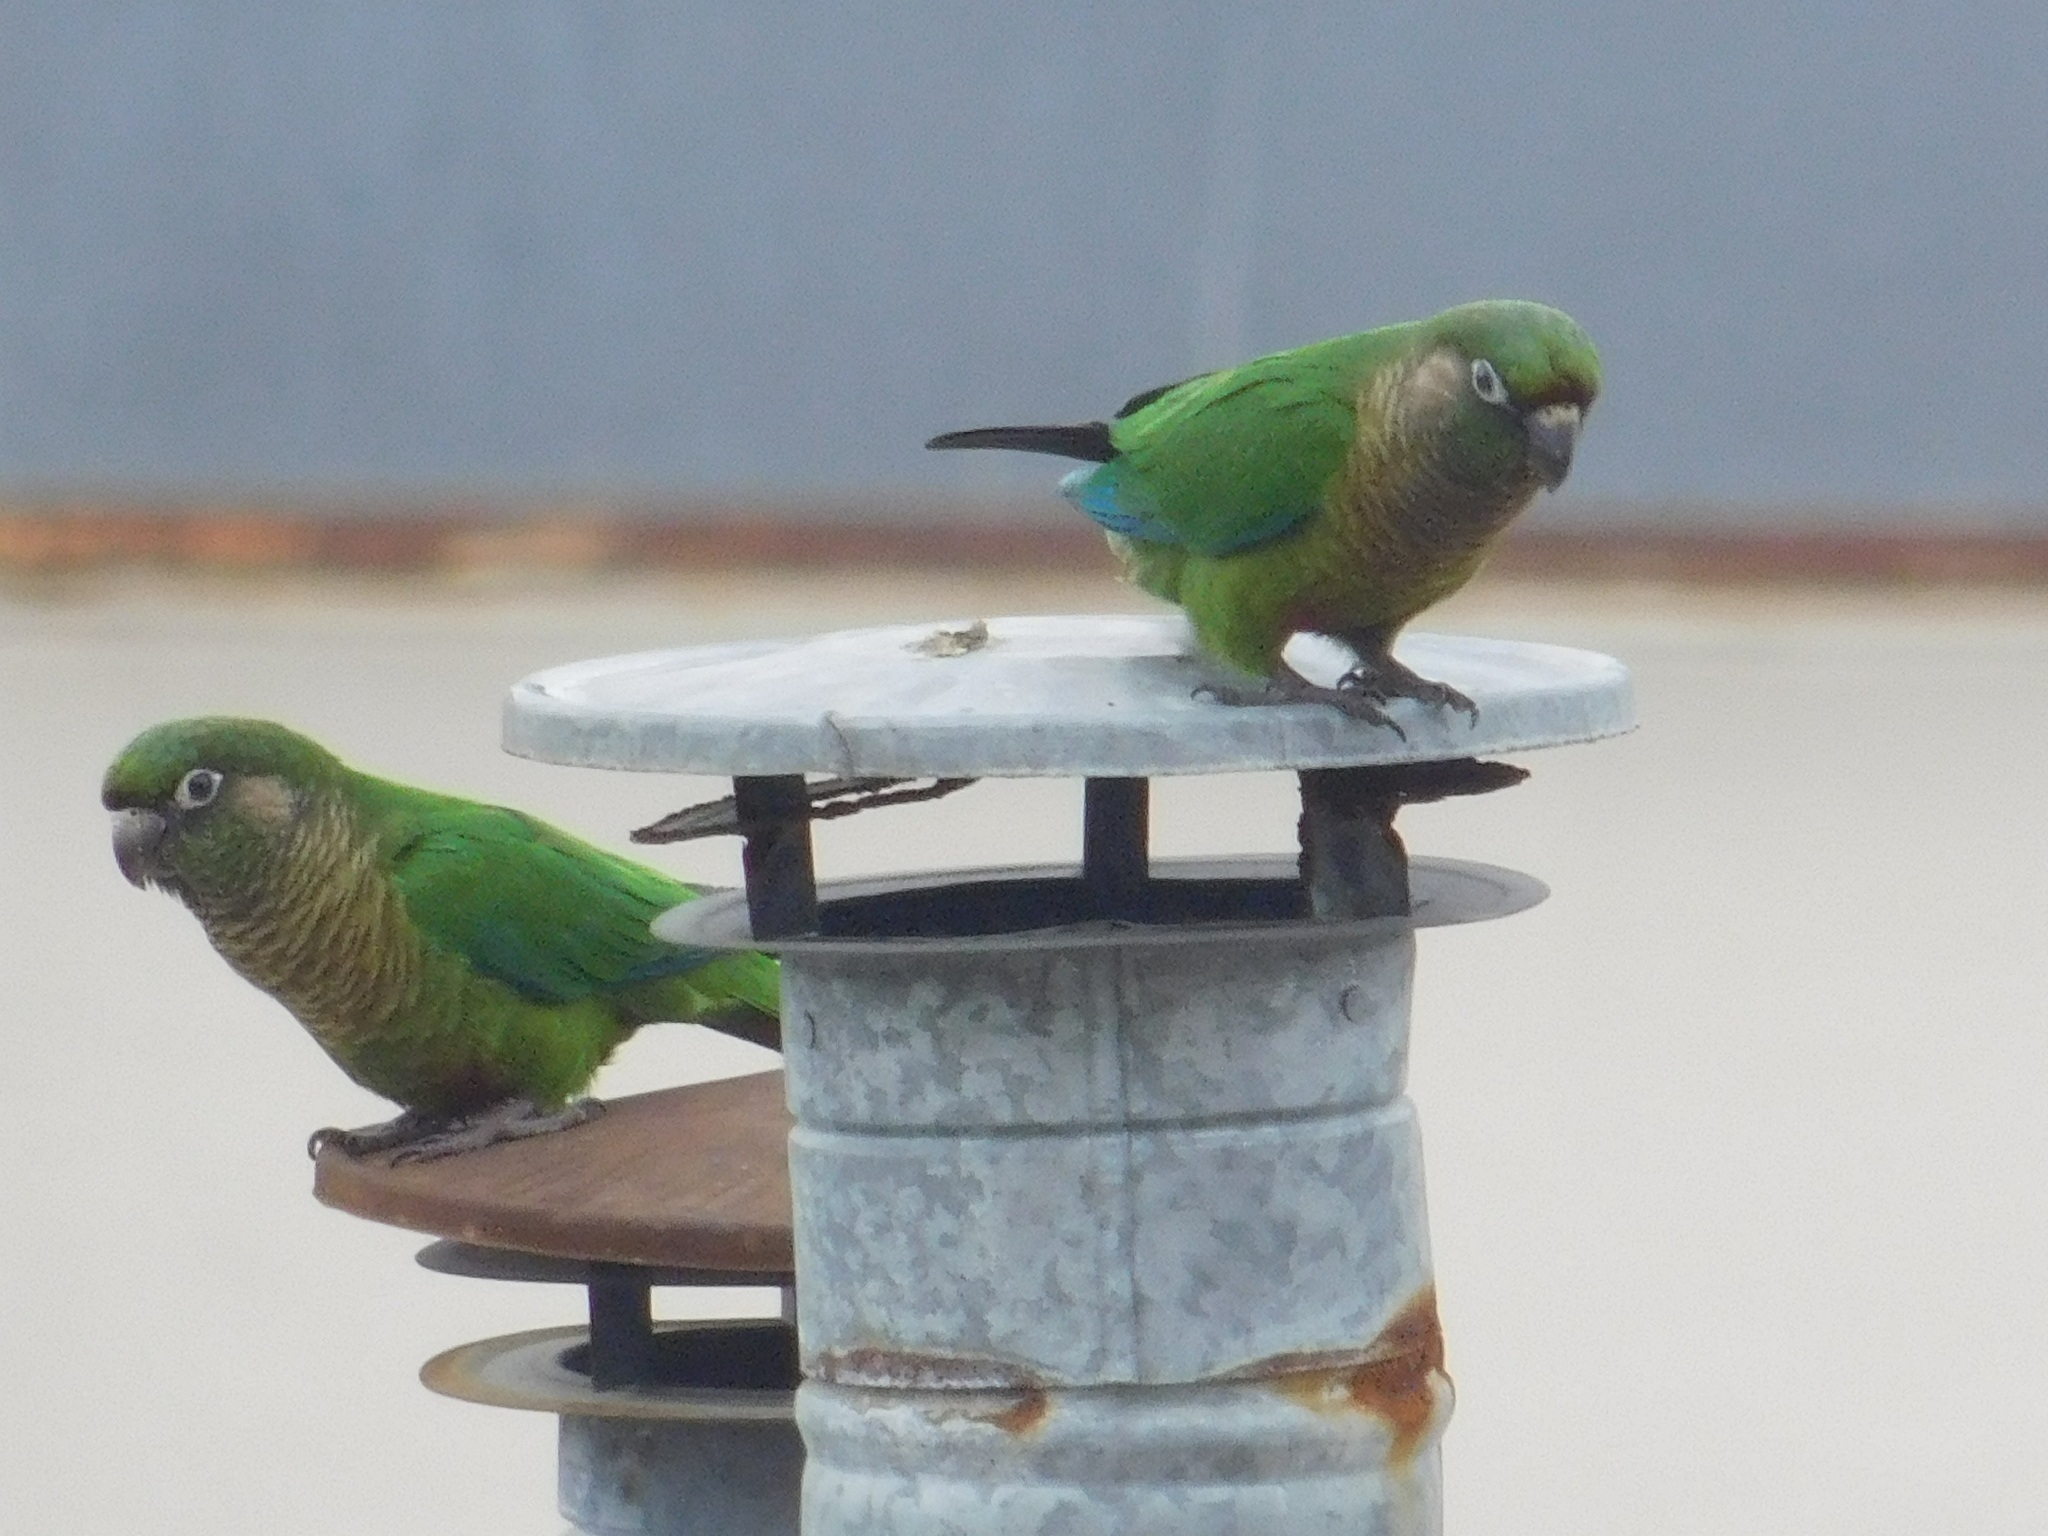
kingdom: Animalia
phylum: Chordata
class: Aves
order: Psittaciformes
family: Psittacidae
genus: Pyrrhura
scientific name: Pyrrhura frontalis
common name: Maroon-bellied parakeet
